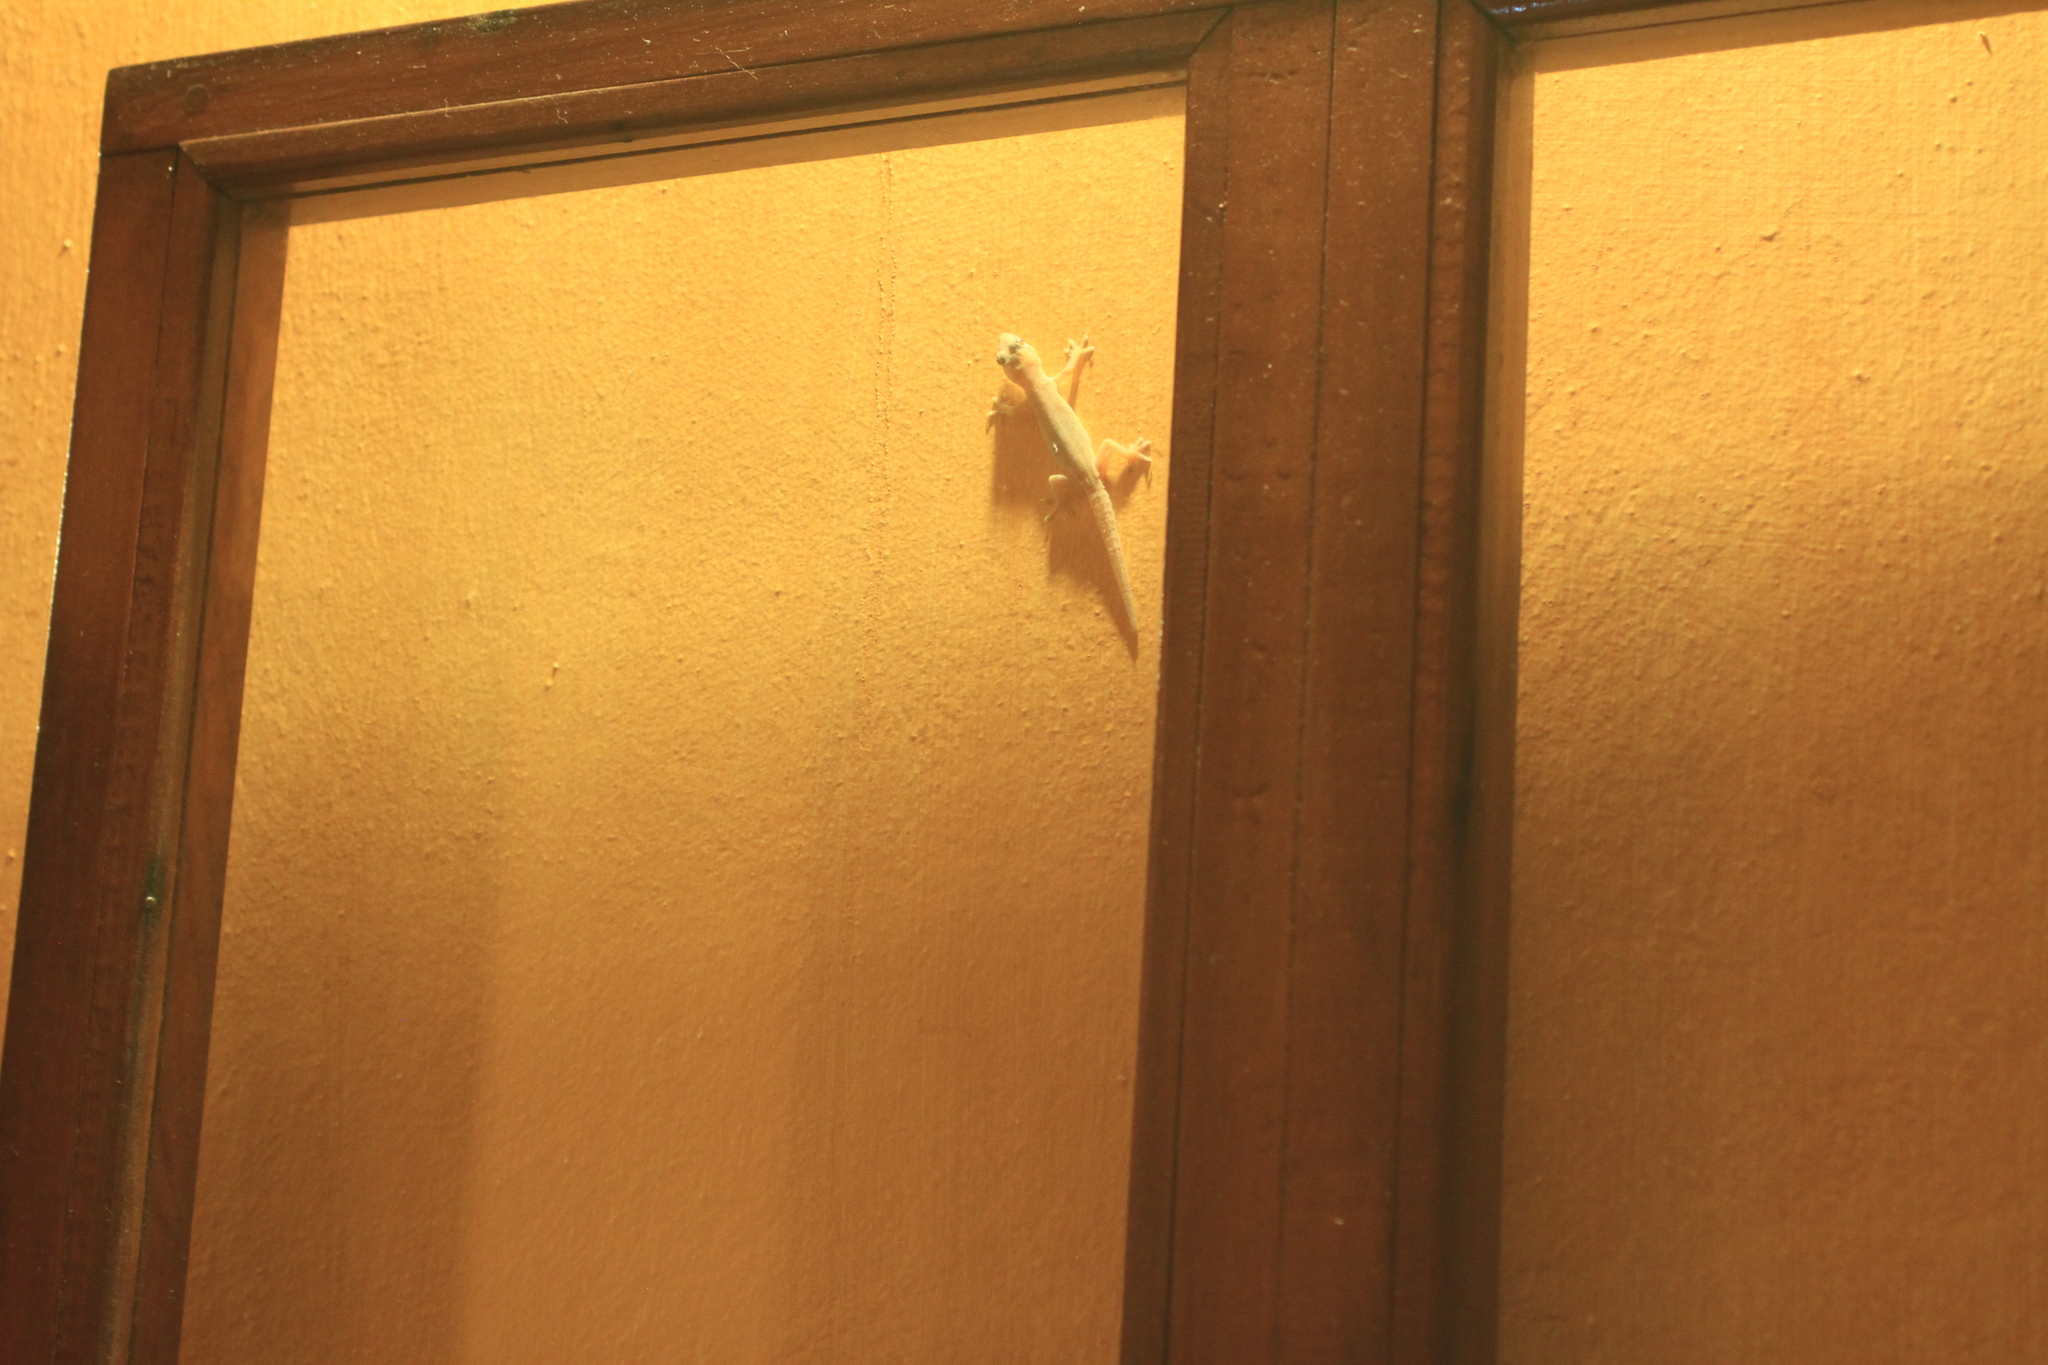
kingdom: Animalia
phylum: Chordata
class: Squamata
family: Gekkonidae
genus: Hemidactylus
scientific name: Hemidactylus frenatus
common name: Common house gecko
